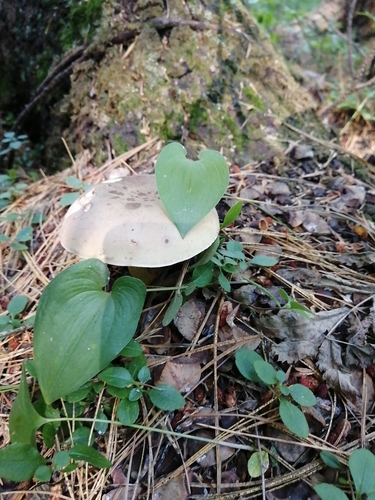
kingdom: Fungi
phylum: Basidiomycota
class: Agaricomycetes
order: Boletales
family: Boletaceae
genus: Tylopilus
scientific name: Tylopilus felleus
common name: Bitter bolete
